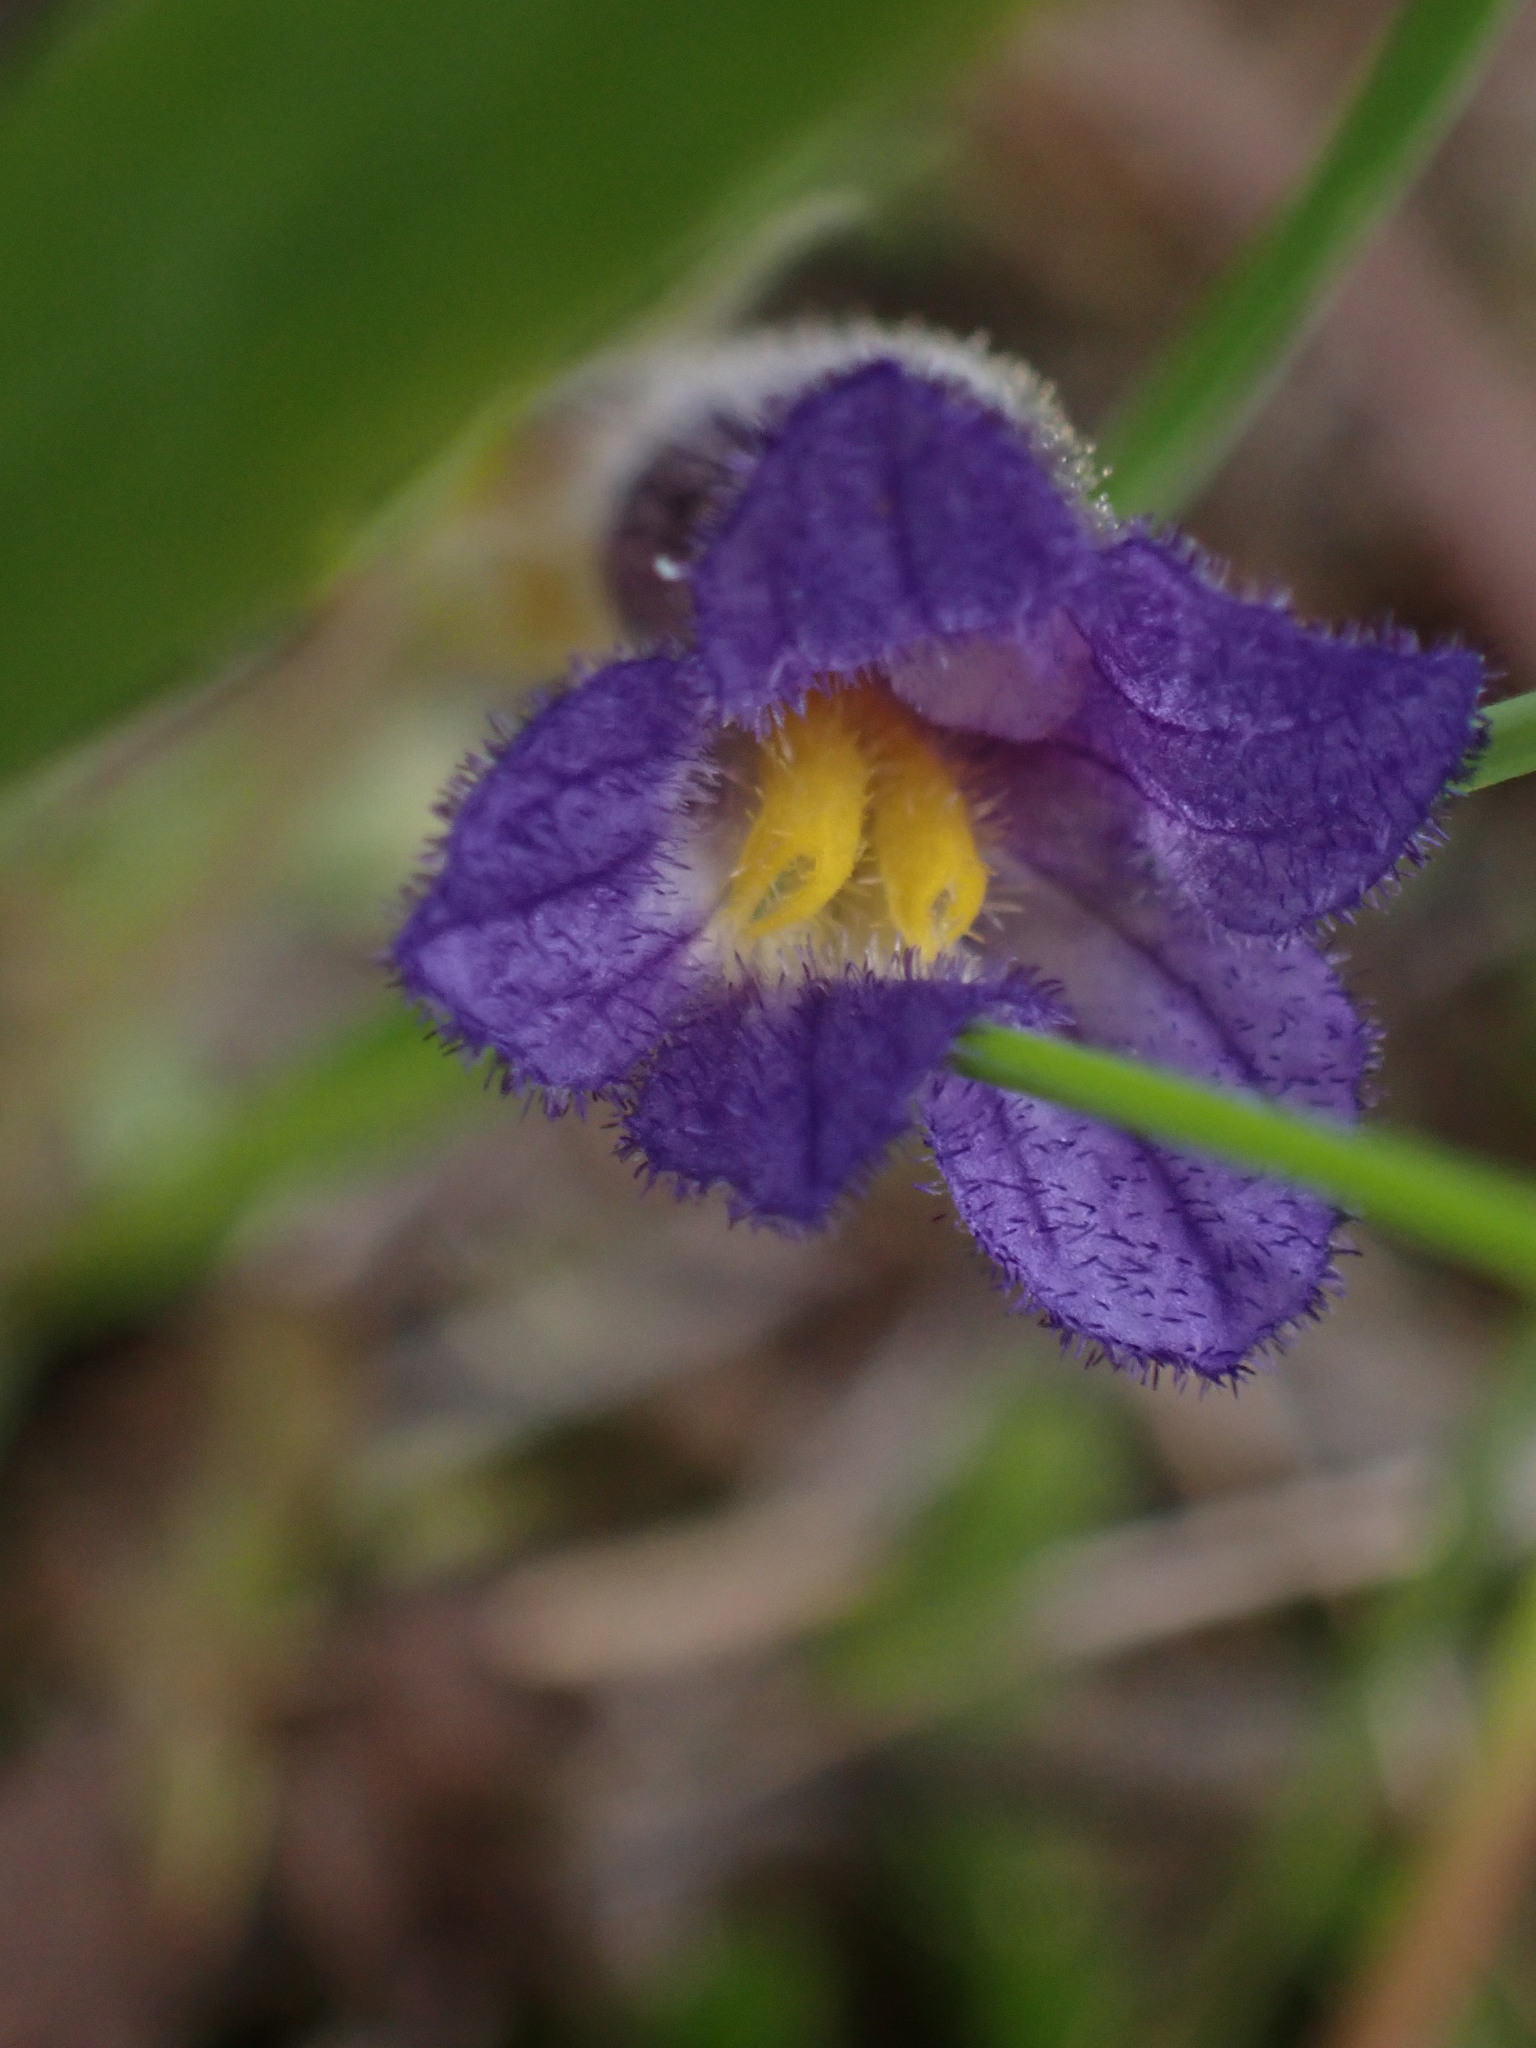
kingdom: Plantae
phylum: Tracheophyta
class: Magnoliopsida
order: Lamiales
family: Orobanchaceae
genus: Aphyllon
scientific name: Aphyllon uniflorum
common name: One-flowered broomrape
